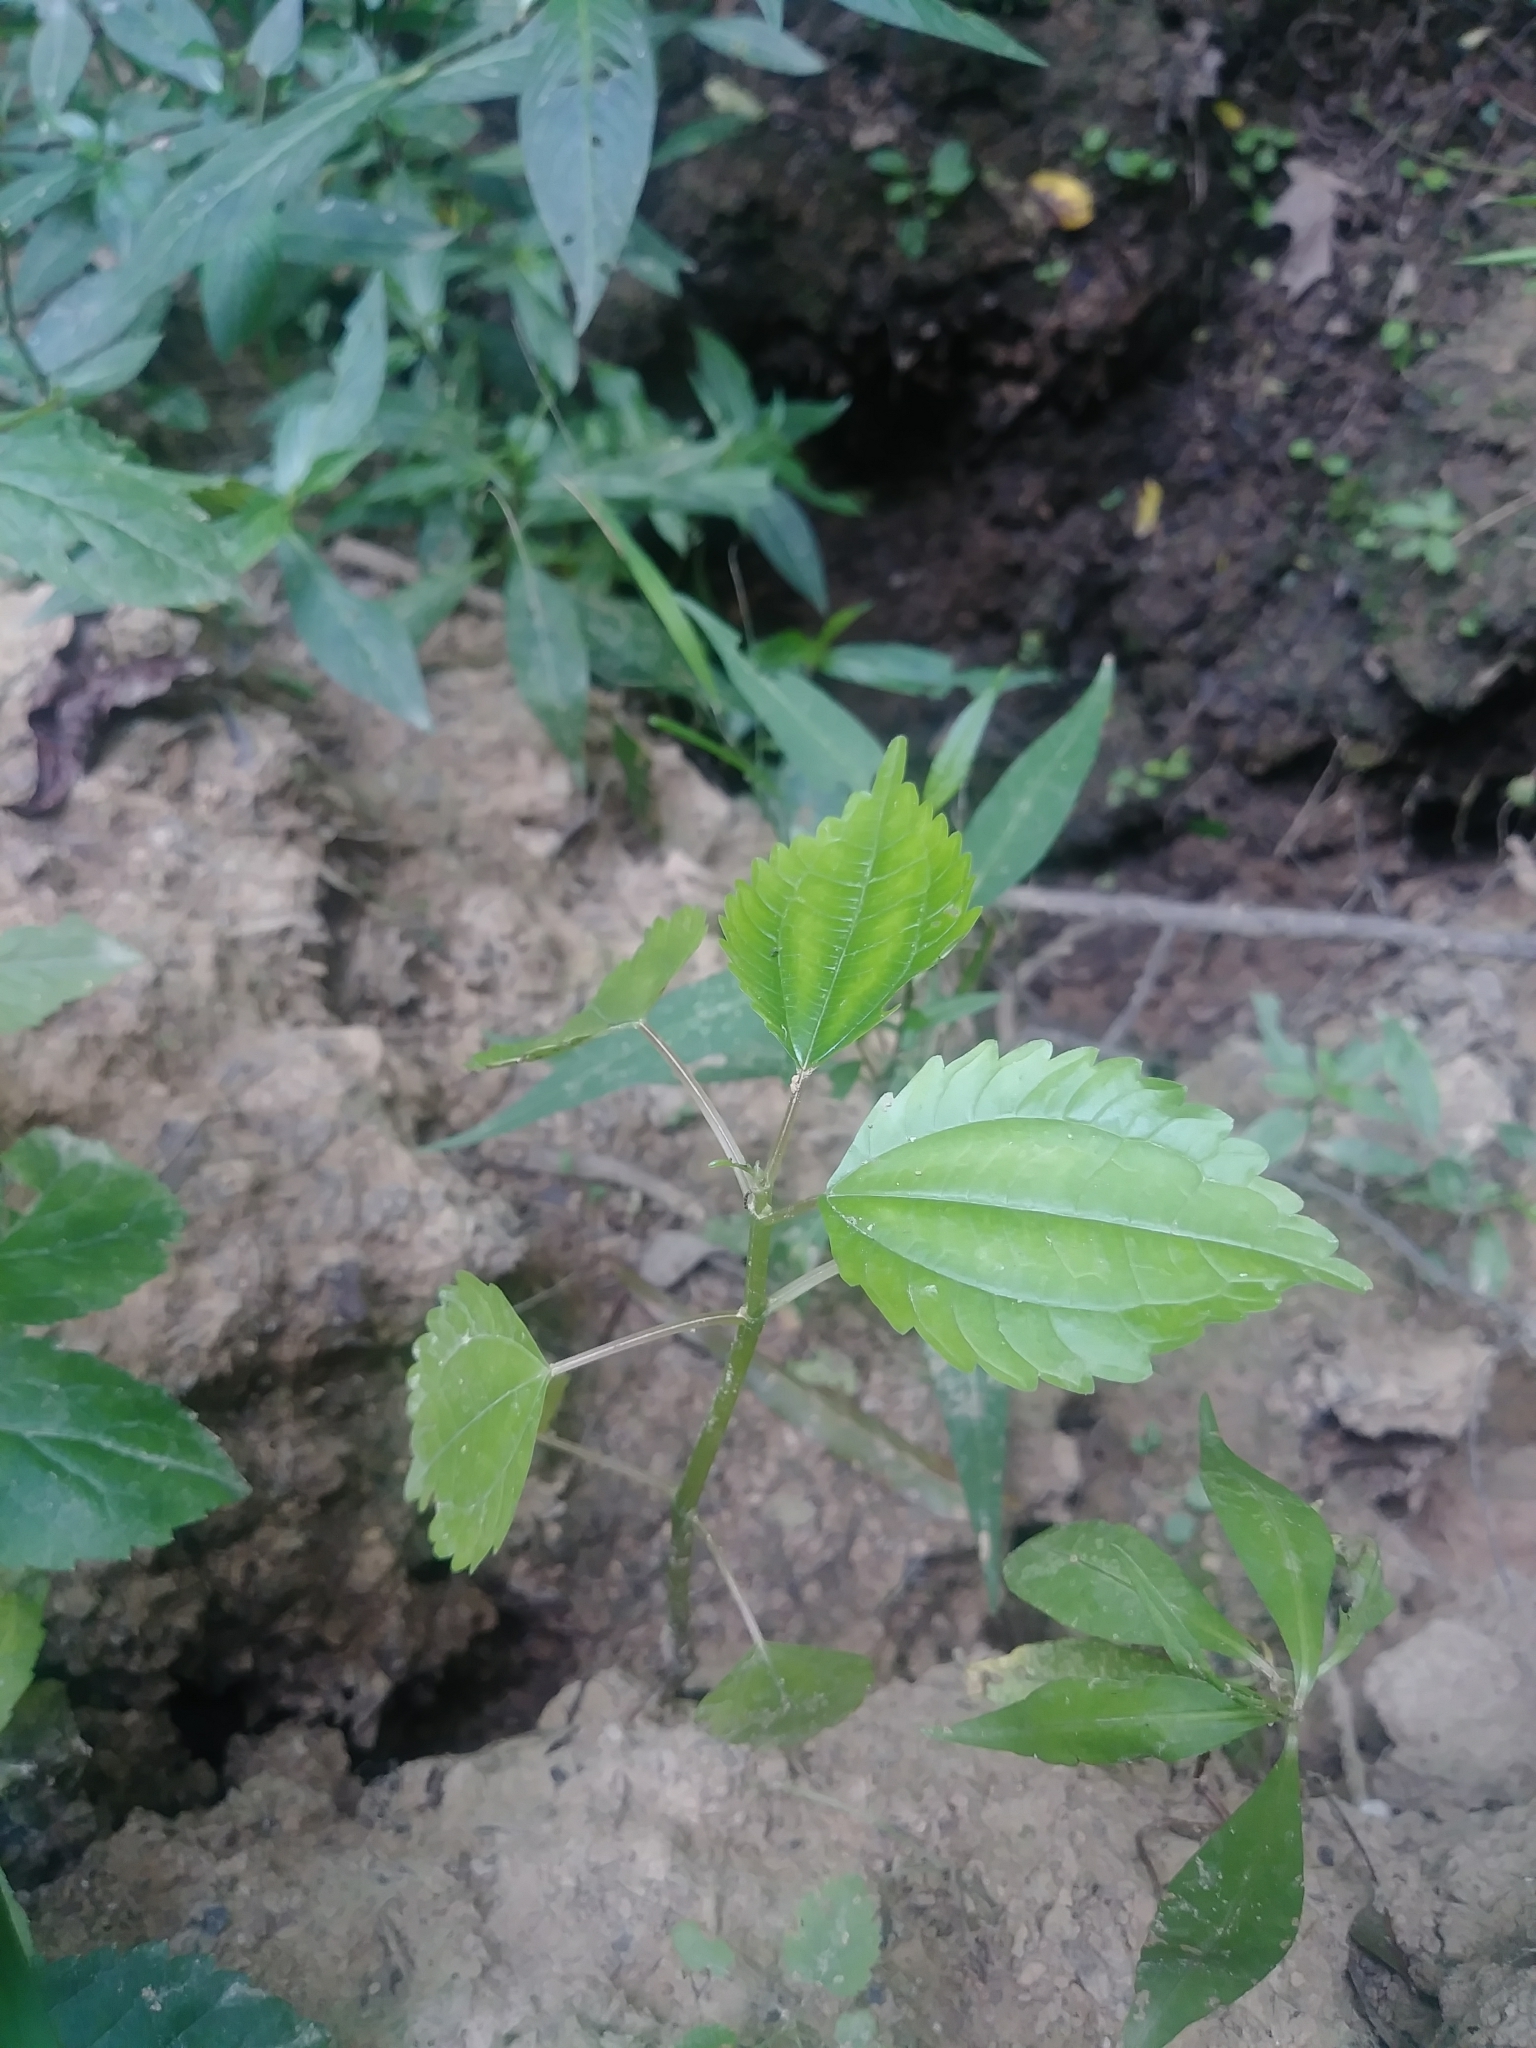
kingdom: Plantae
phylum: Tracheophyta
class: Magnoliopsida
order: Rosales
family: Urticaceae
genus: Pilea
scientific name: Pilea pumila
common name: Clearweed
